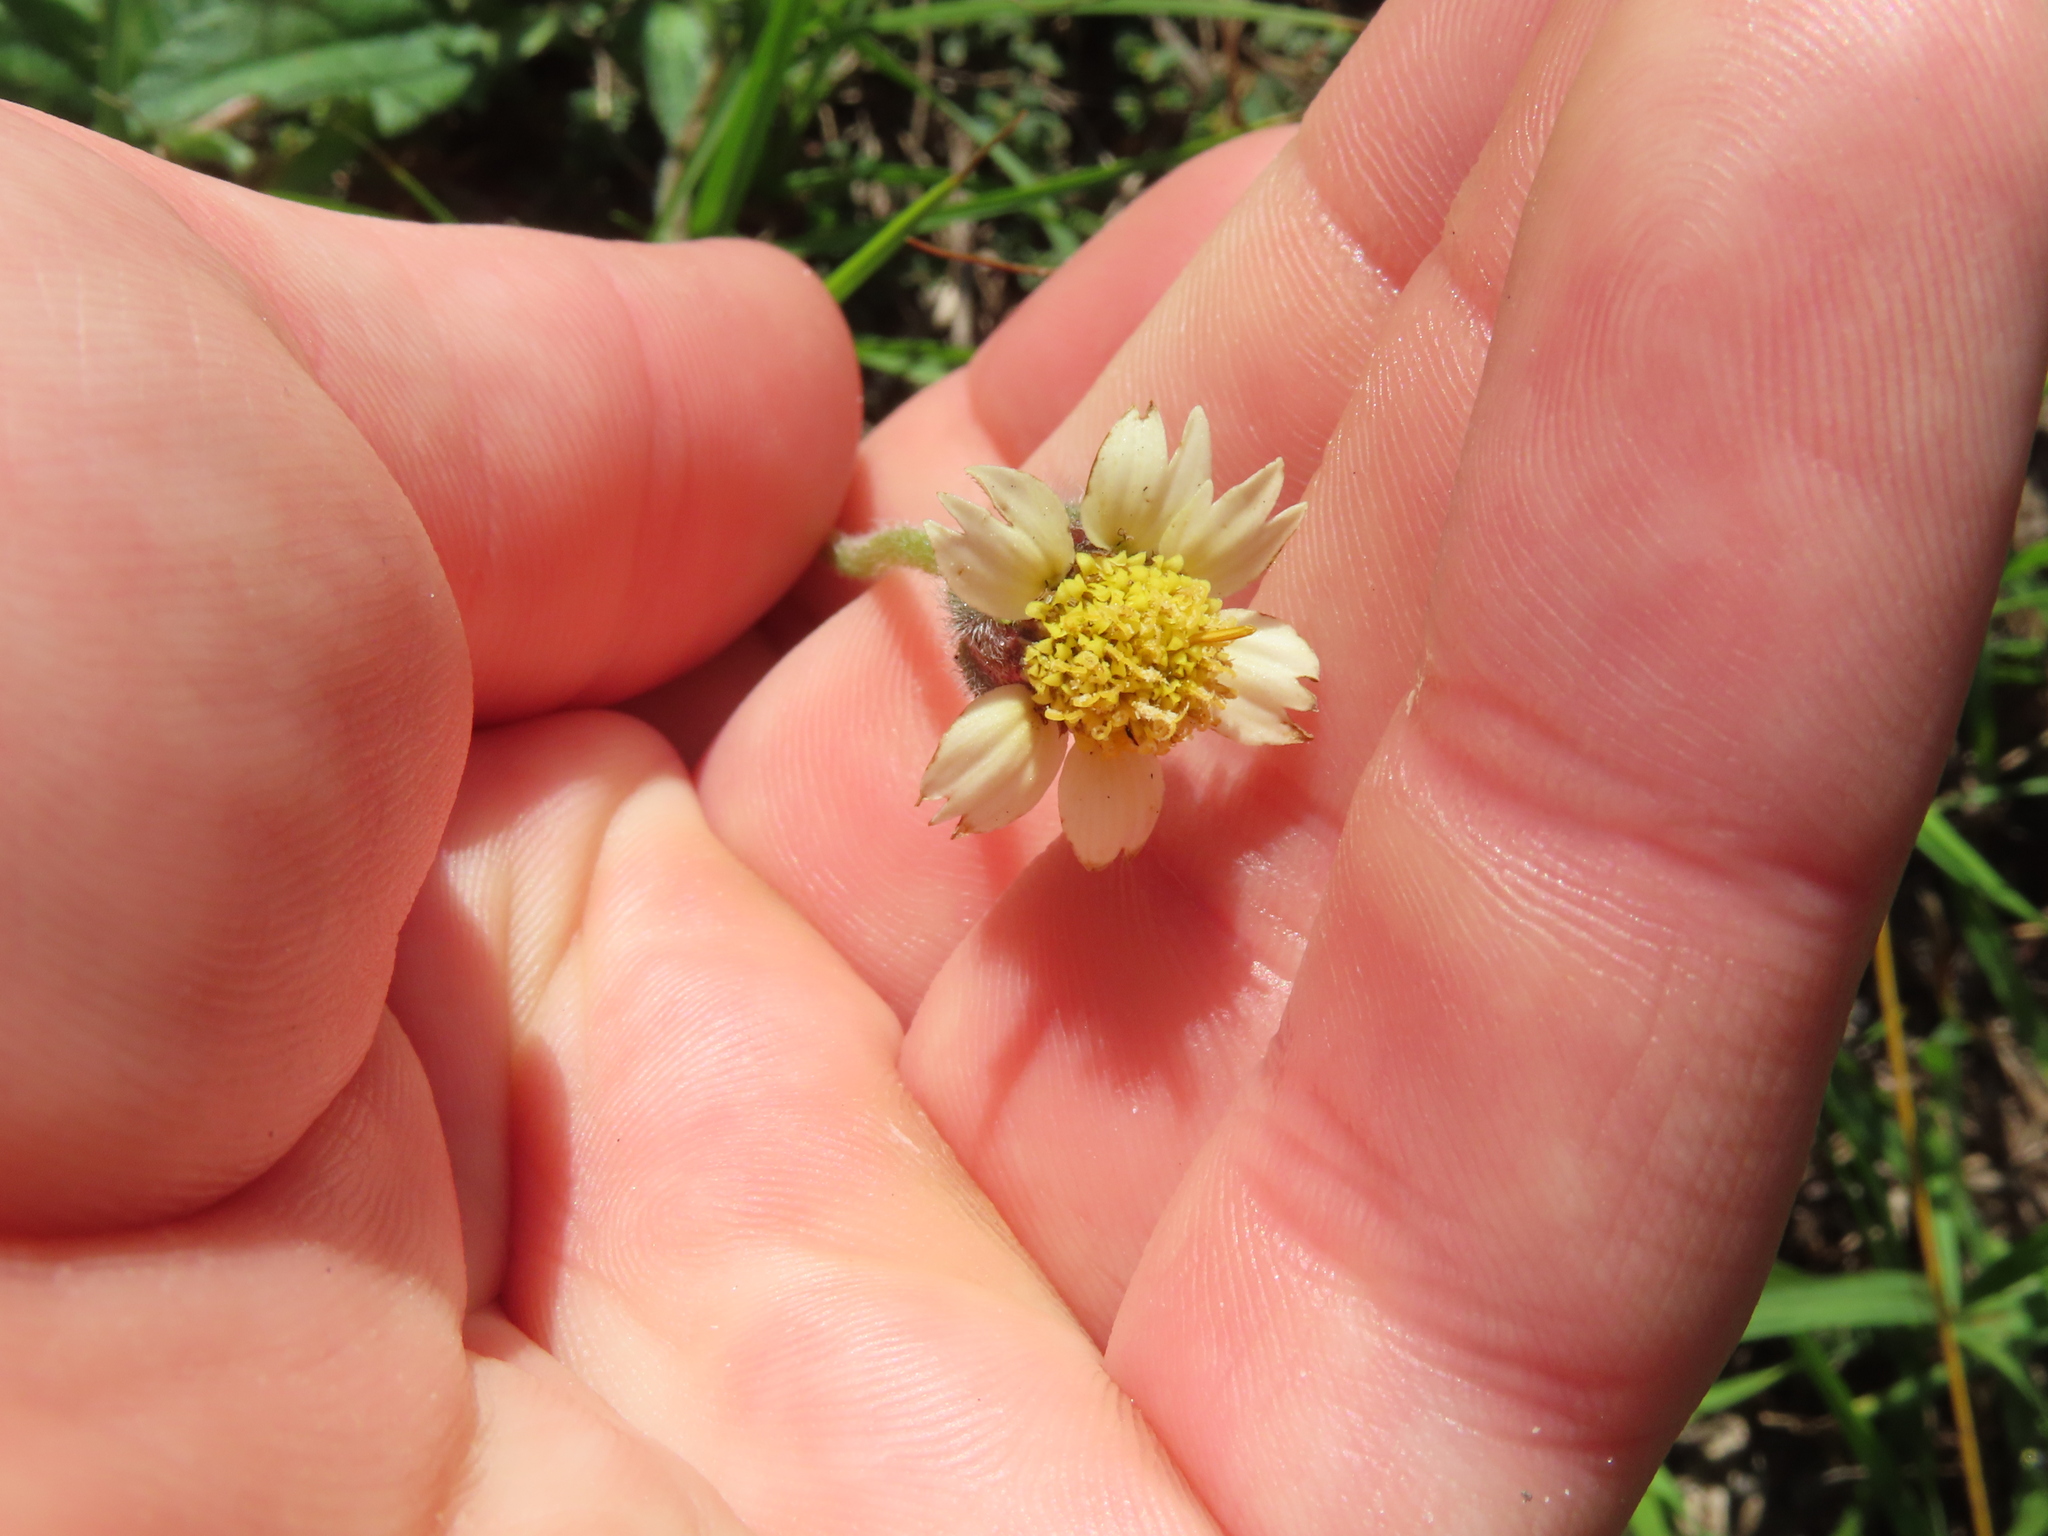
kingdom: Plantae
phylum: Tracheophyta
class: Magnoliopsida
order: Asterales
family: Asteraceae
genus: Tridax
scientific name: Tridax procumbens
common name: Coatbuttons
